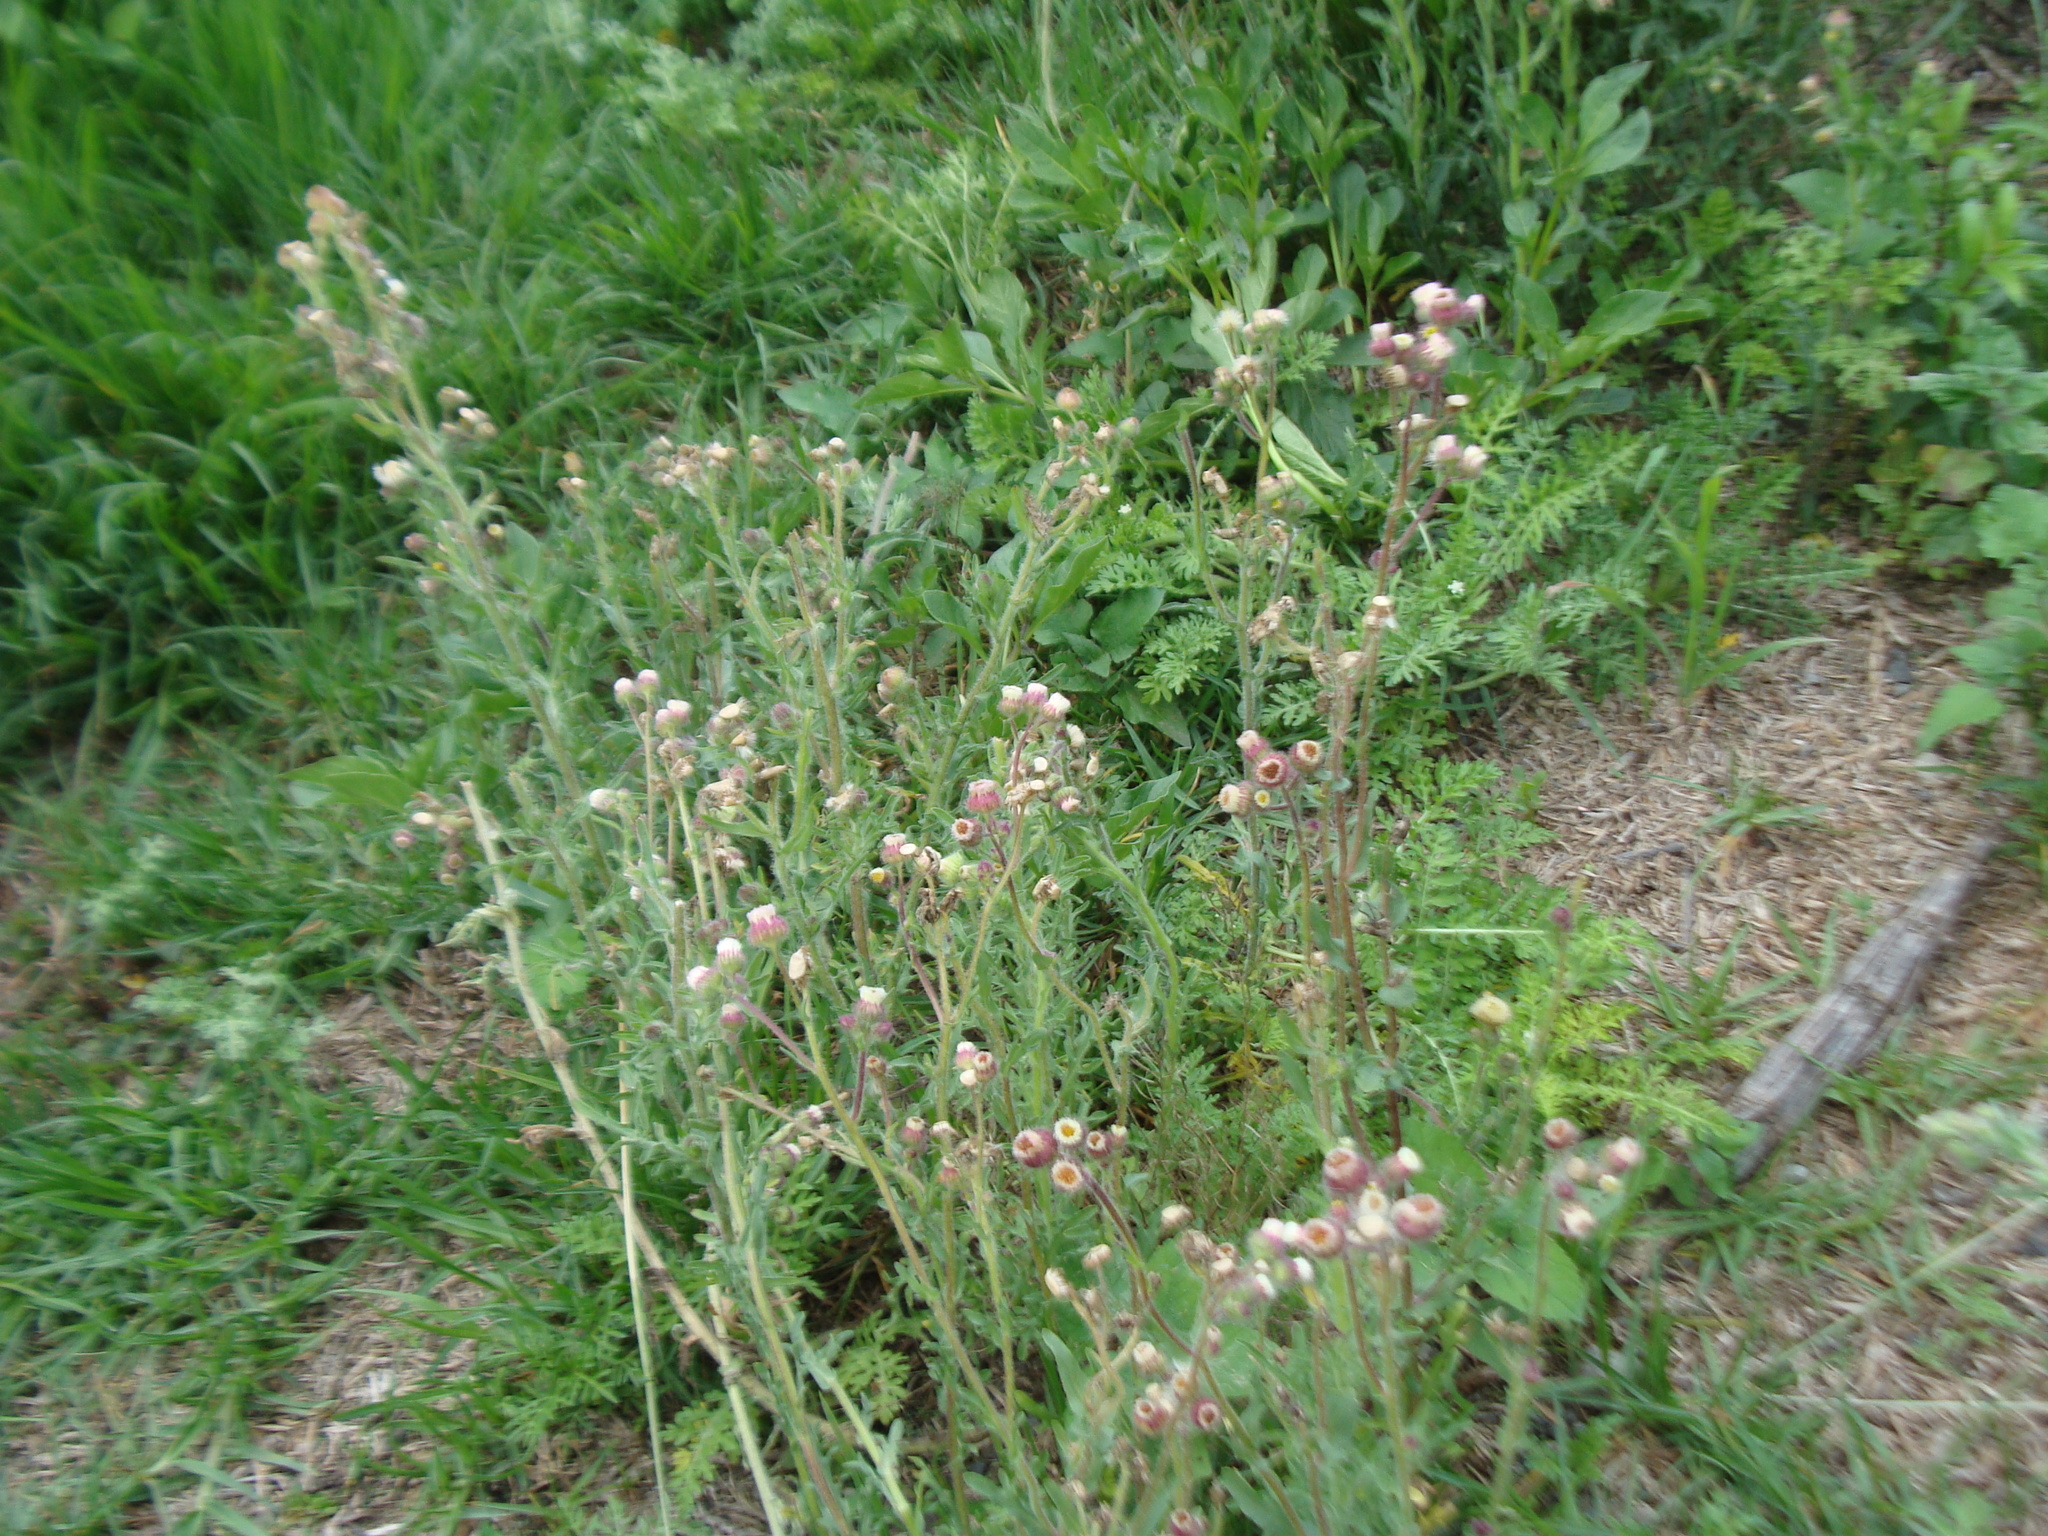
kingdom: Plantae
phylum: Tracheophyta
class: Magnoliopsida
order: Asterales
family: Asteraceae
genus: Erigeron
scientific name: Erigeron variifolius
